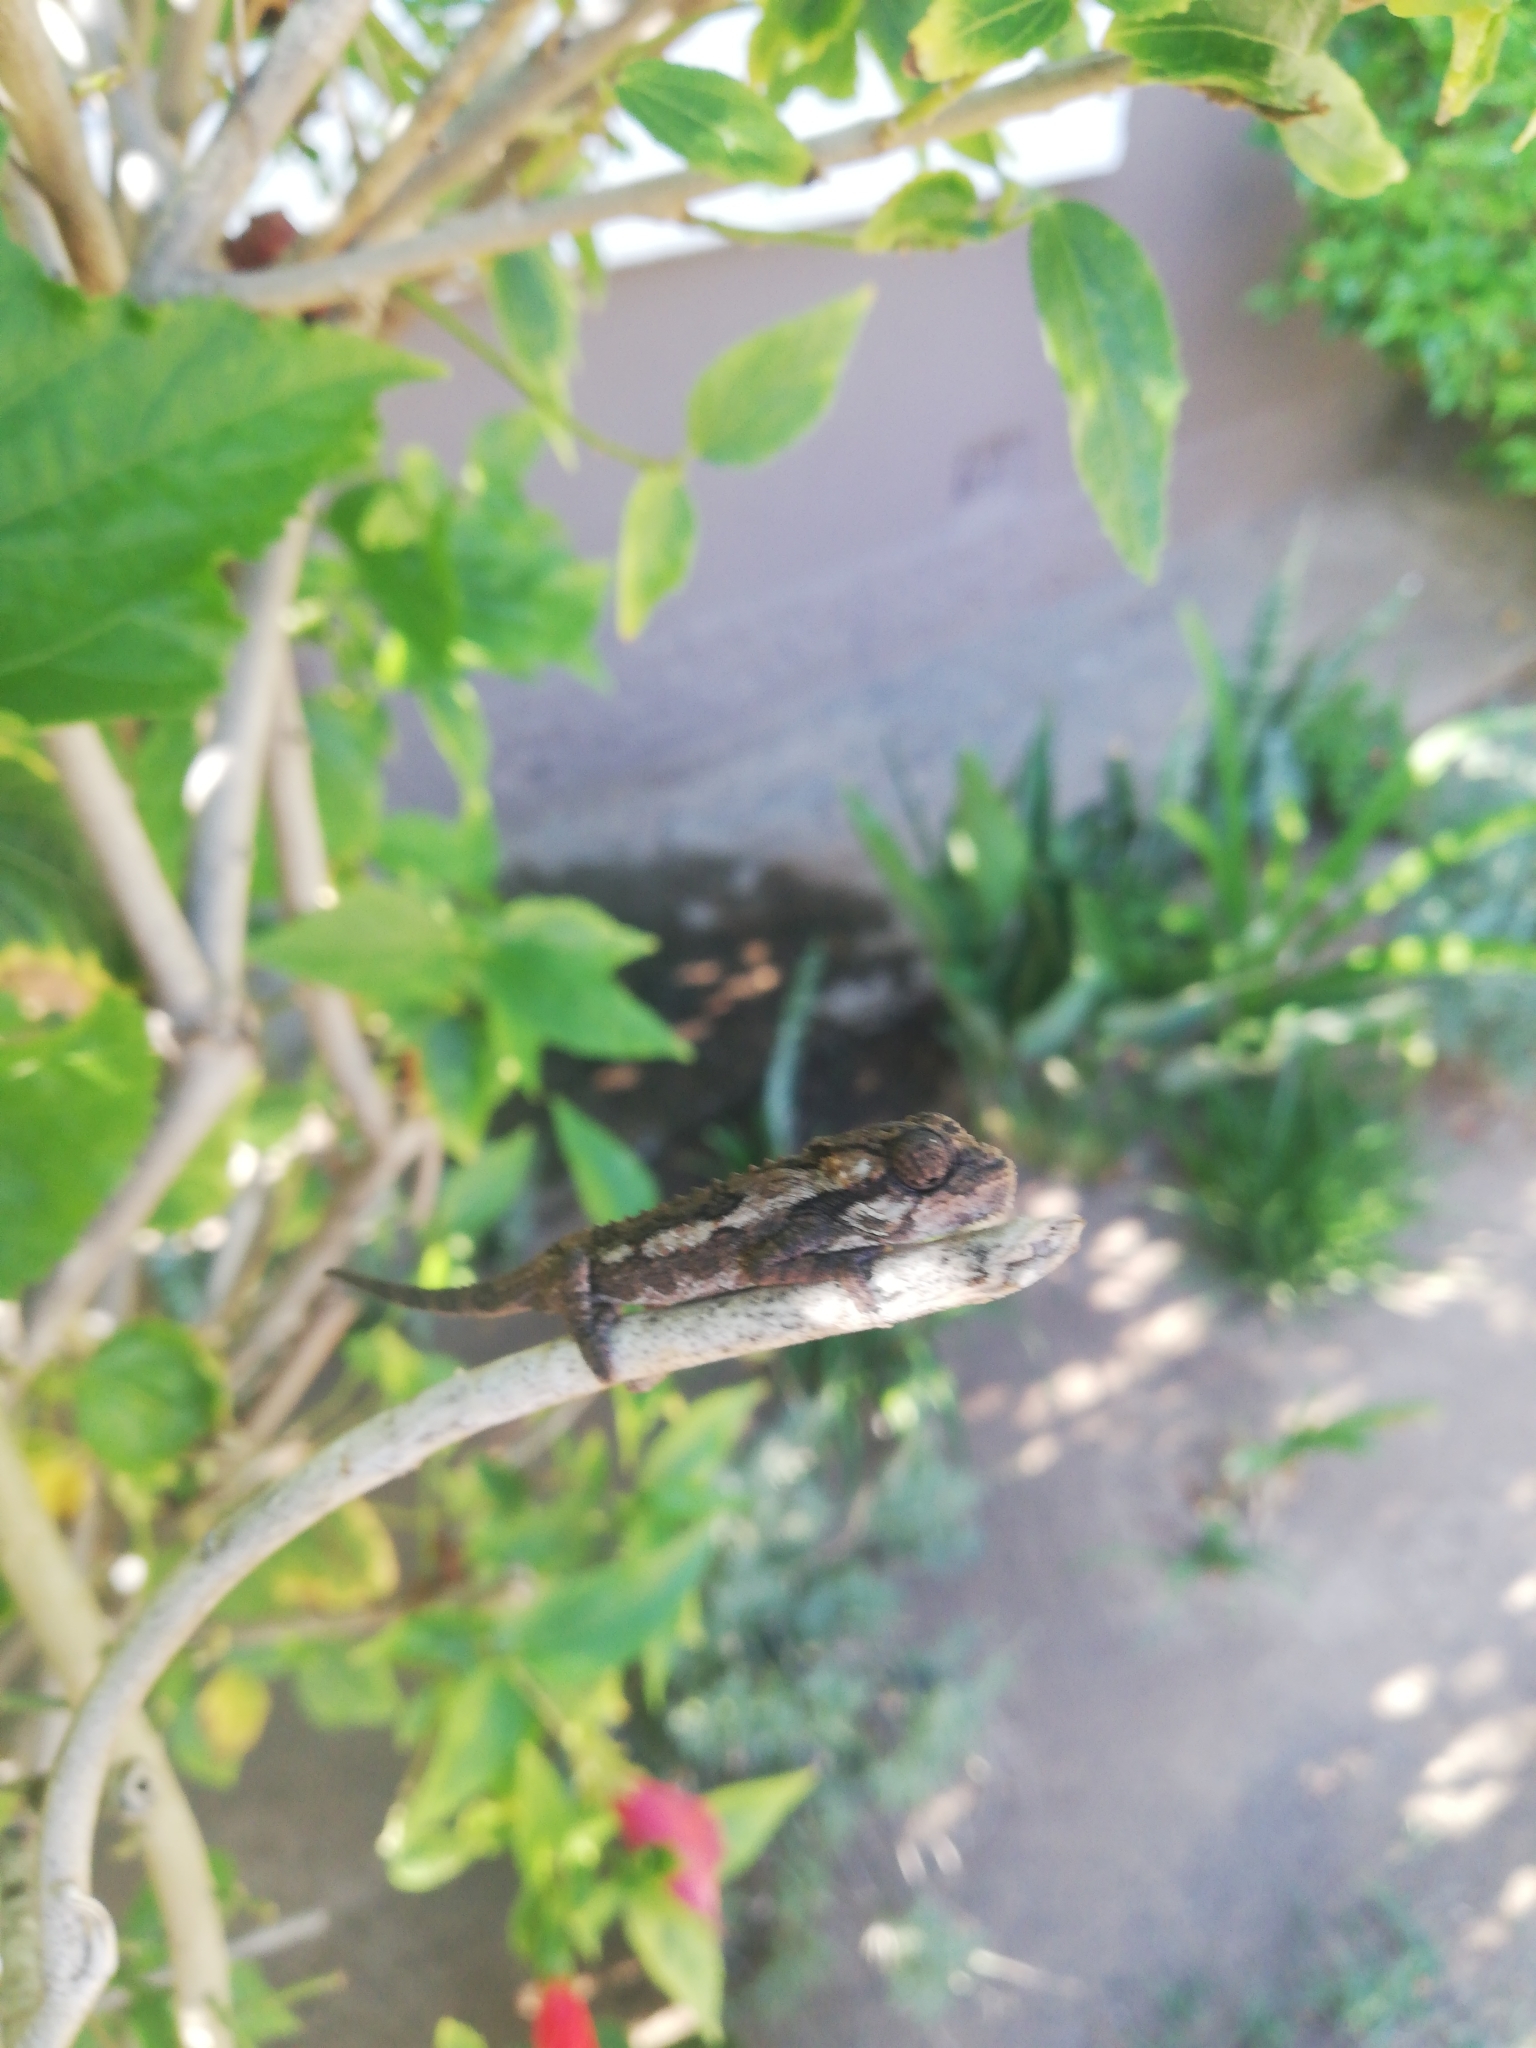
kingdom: Animalia
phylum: Chordata
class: Squamata
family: Chamaeleonidae
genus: Bradypodion
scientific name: Bradypodion ventrale
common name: Eastern cape dwarf chameleon
